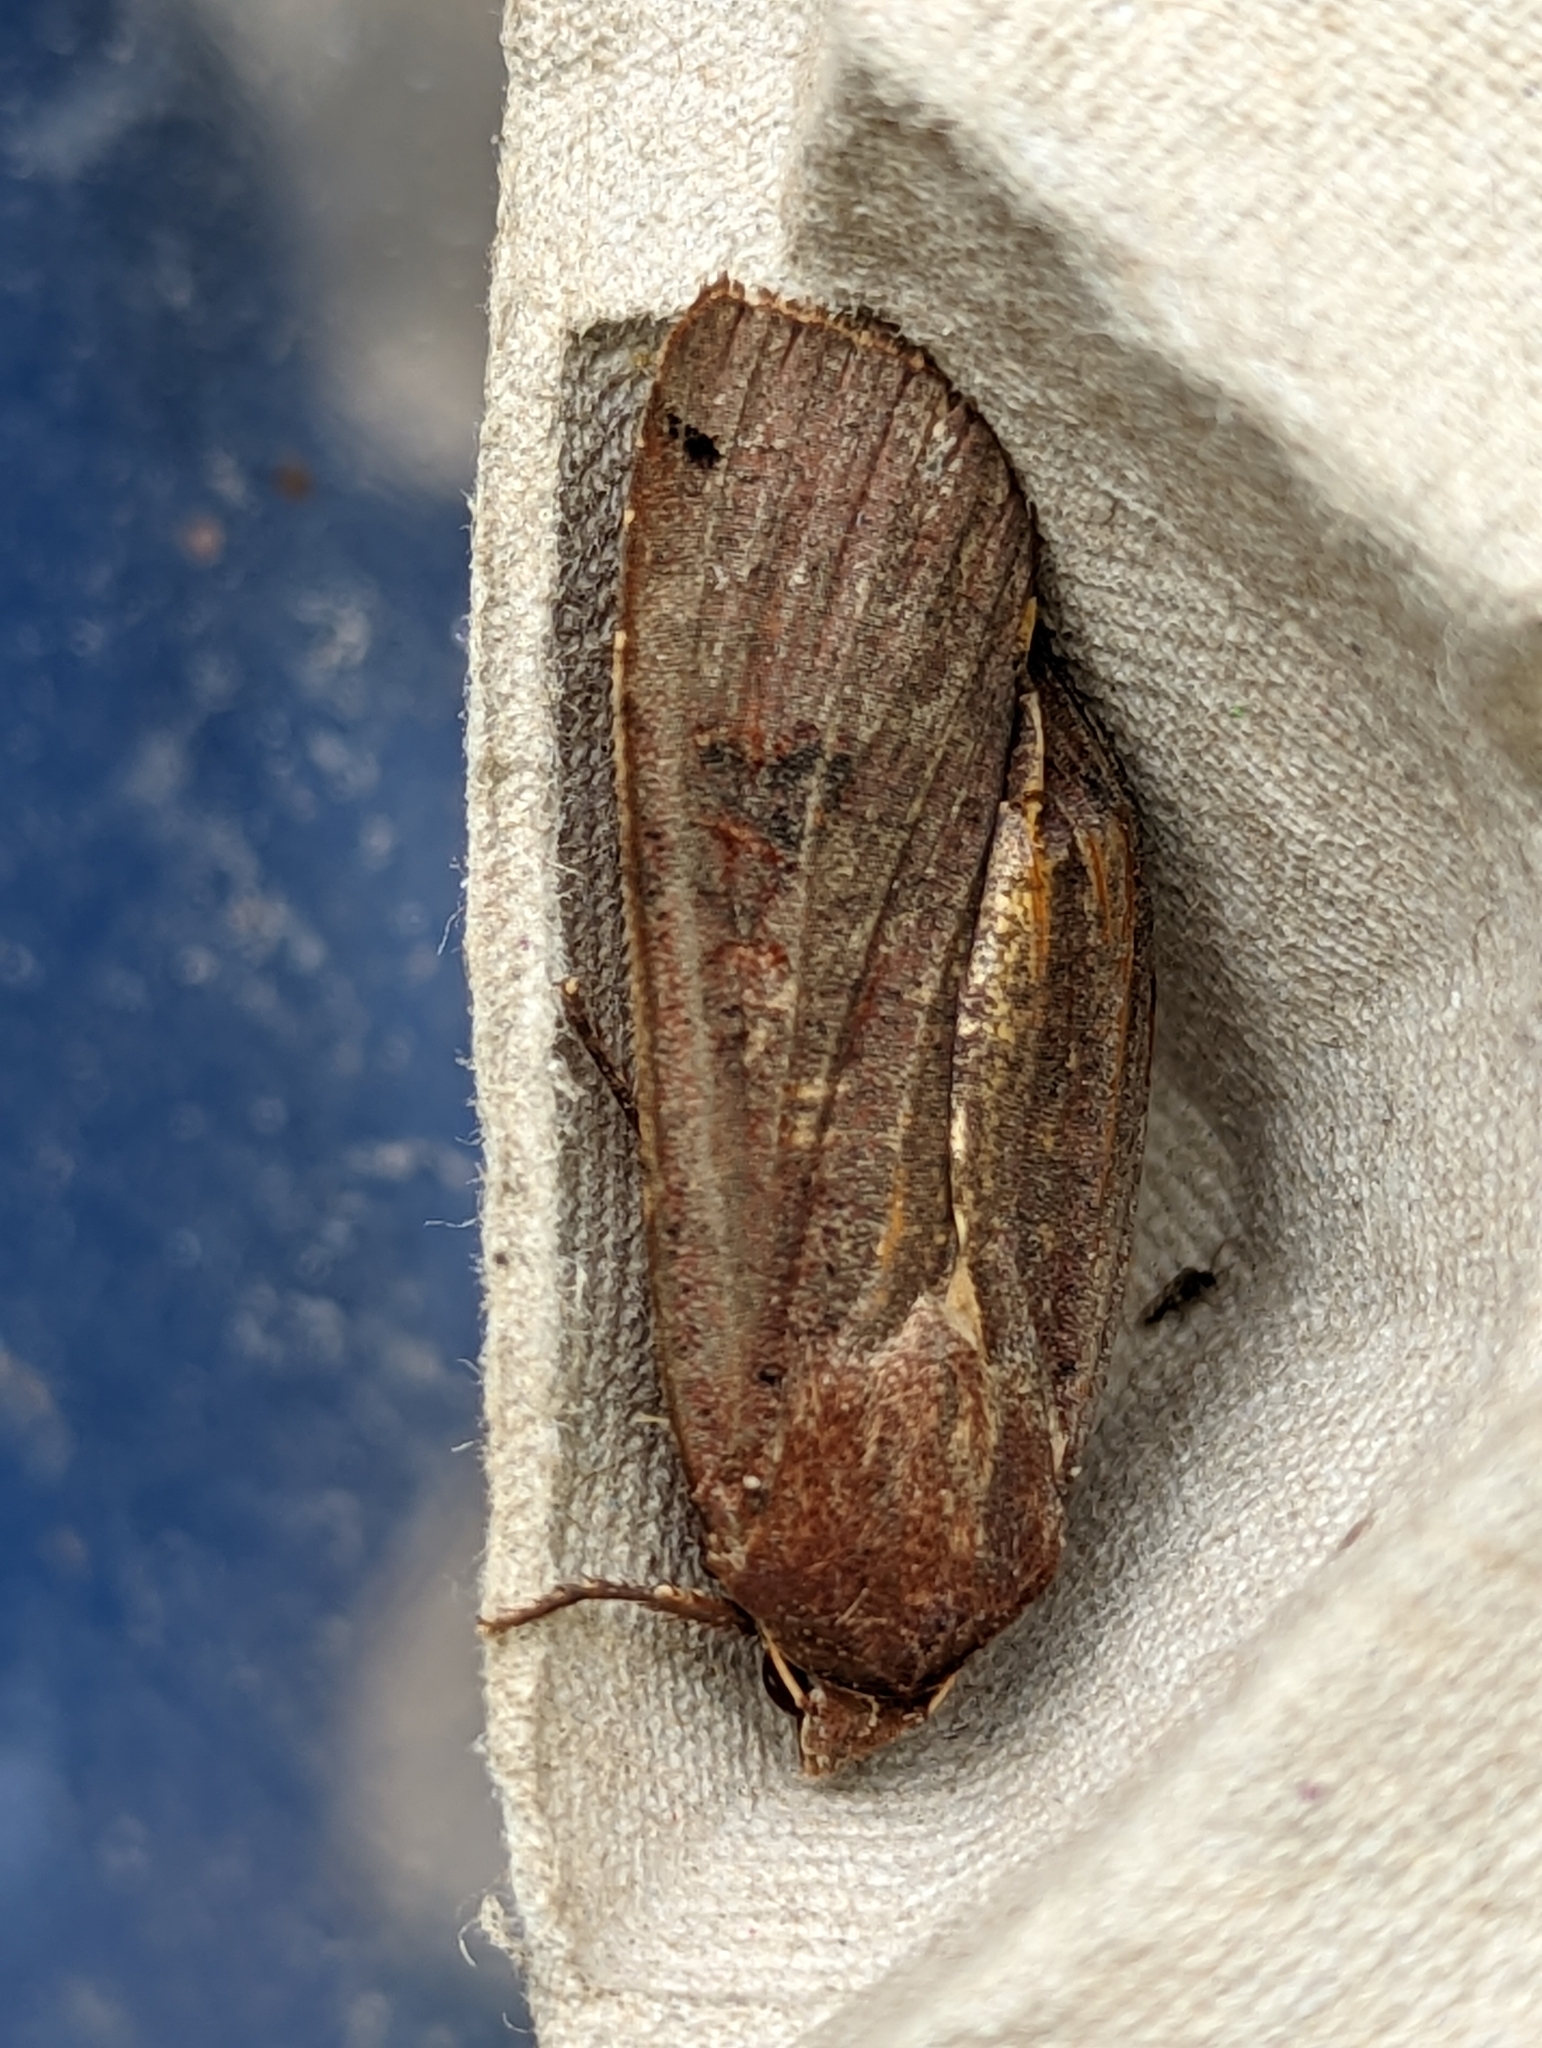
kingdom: Animalia
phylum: Arthropoda
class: Insecta
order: Lepidoptera
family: Noctuidae
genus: Noctua
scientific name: Noctua pronuba
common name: Large yellow underwing
